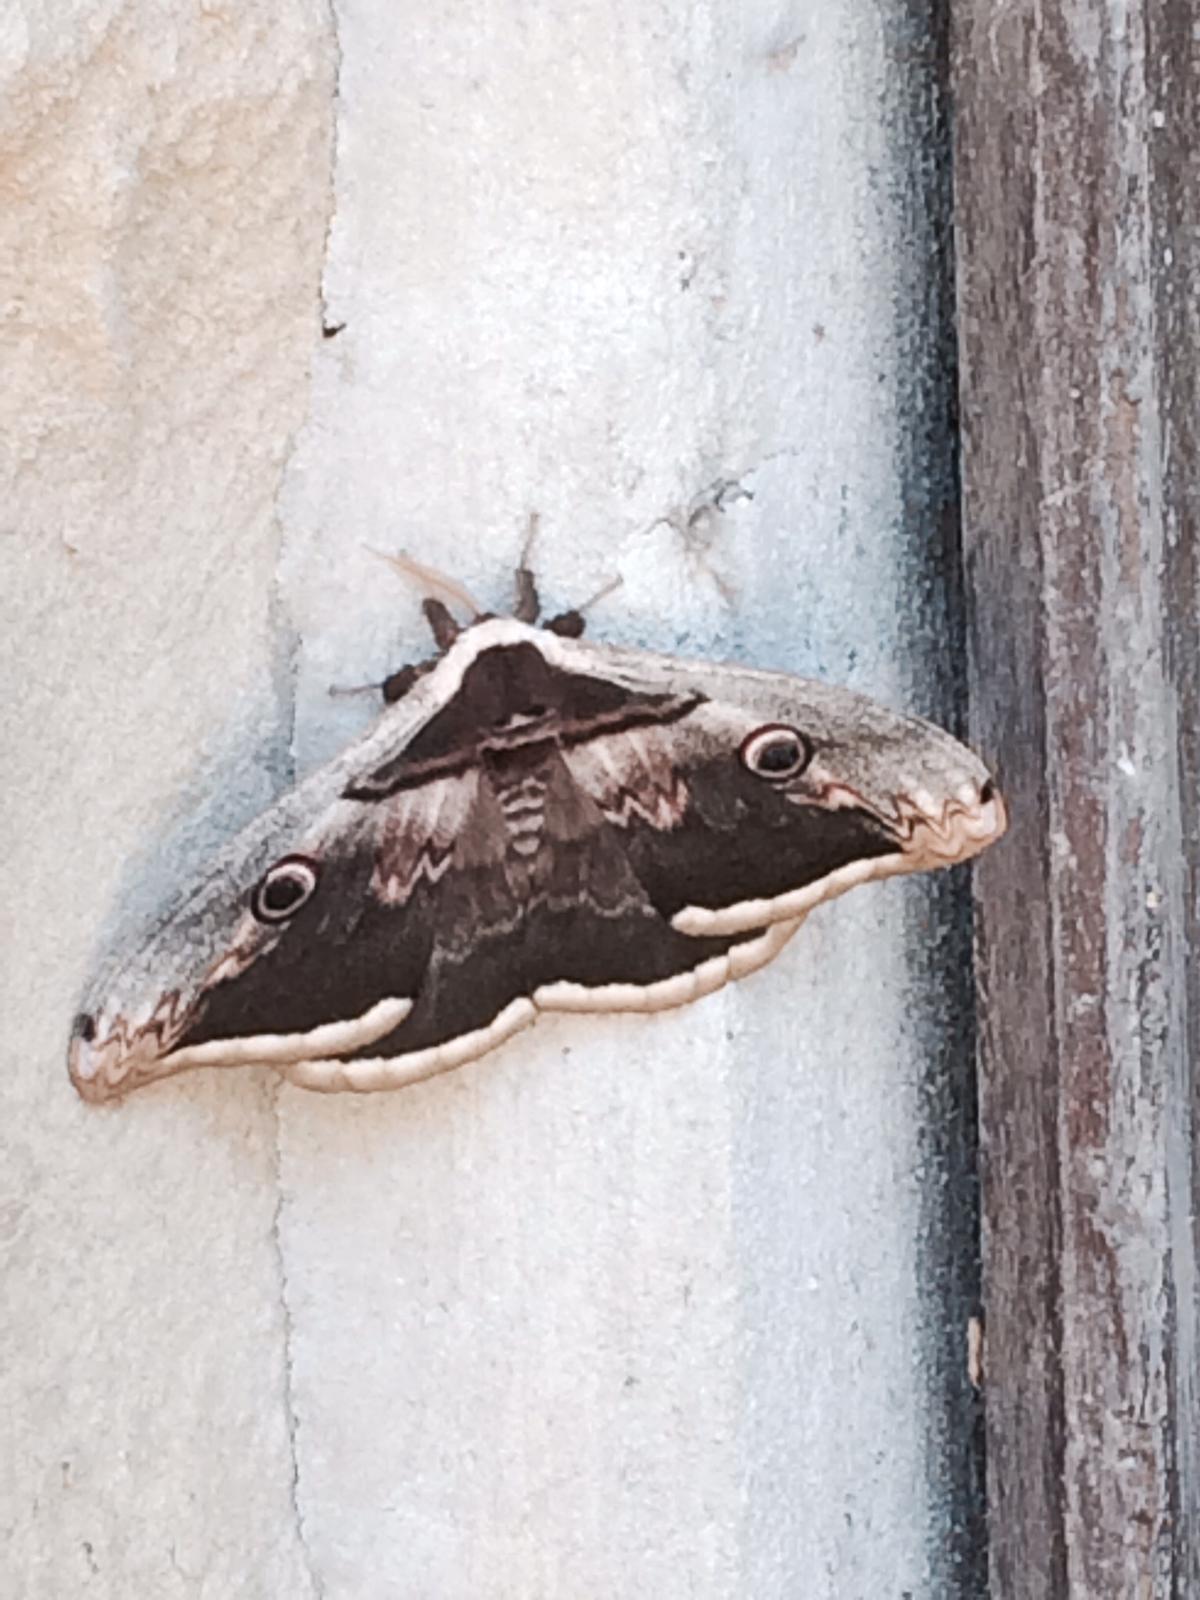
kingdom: Animalia
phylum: Arthropoda
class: Insecta
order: Lepidoptera
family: Saturniidae
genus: Saturnia
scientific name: Saturnia pyri
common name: Great peacock moth
